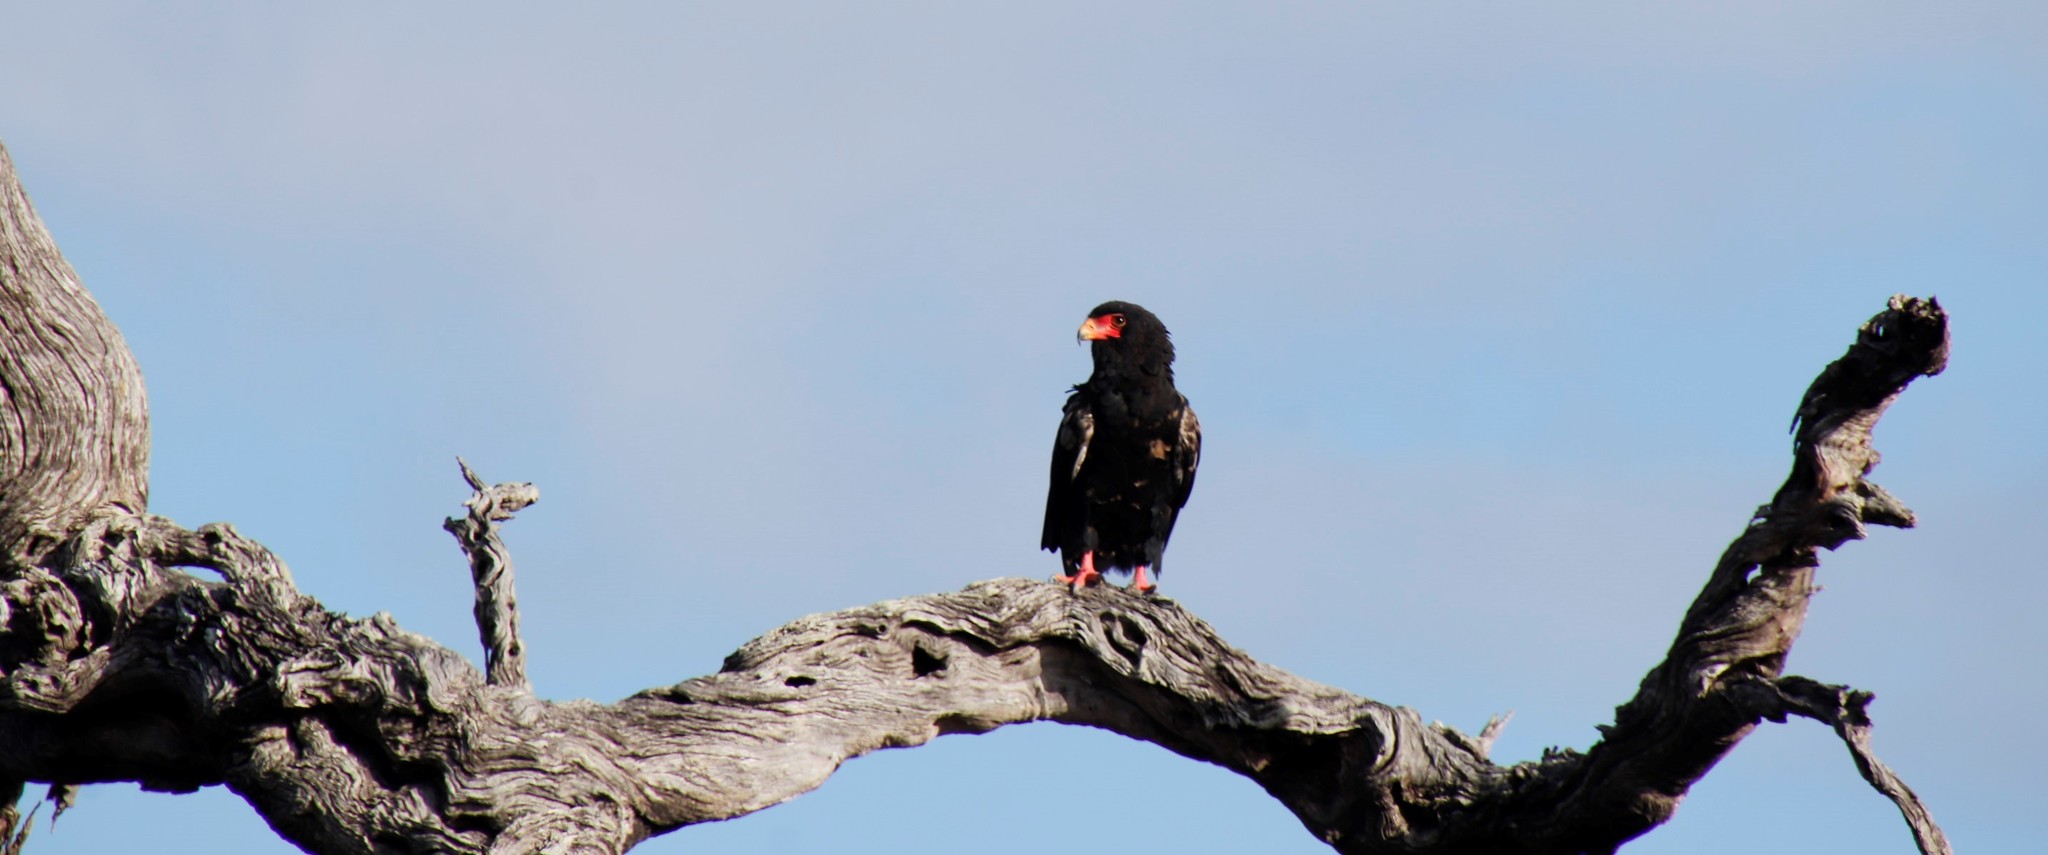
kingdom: Animalia
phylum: Chordata
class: Aves
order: Accipitriformes
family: Accipitridae
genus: Terathopius
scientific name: Terathopius ecaudatus
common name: Bateleur
